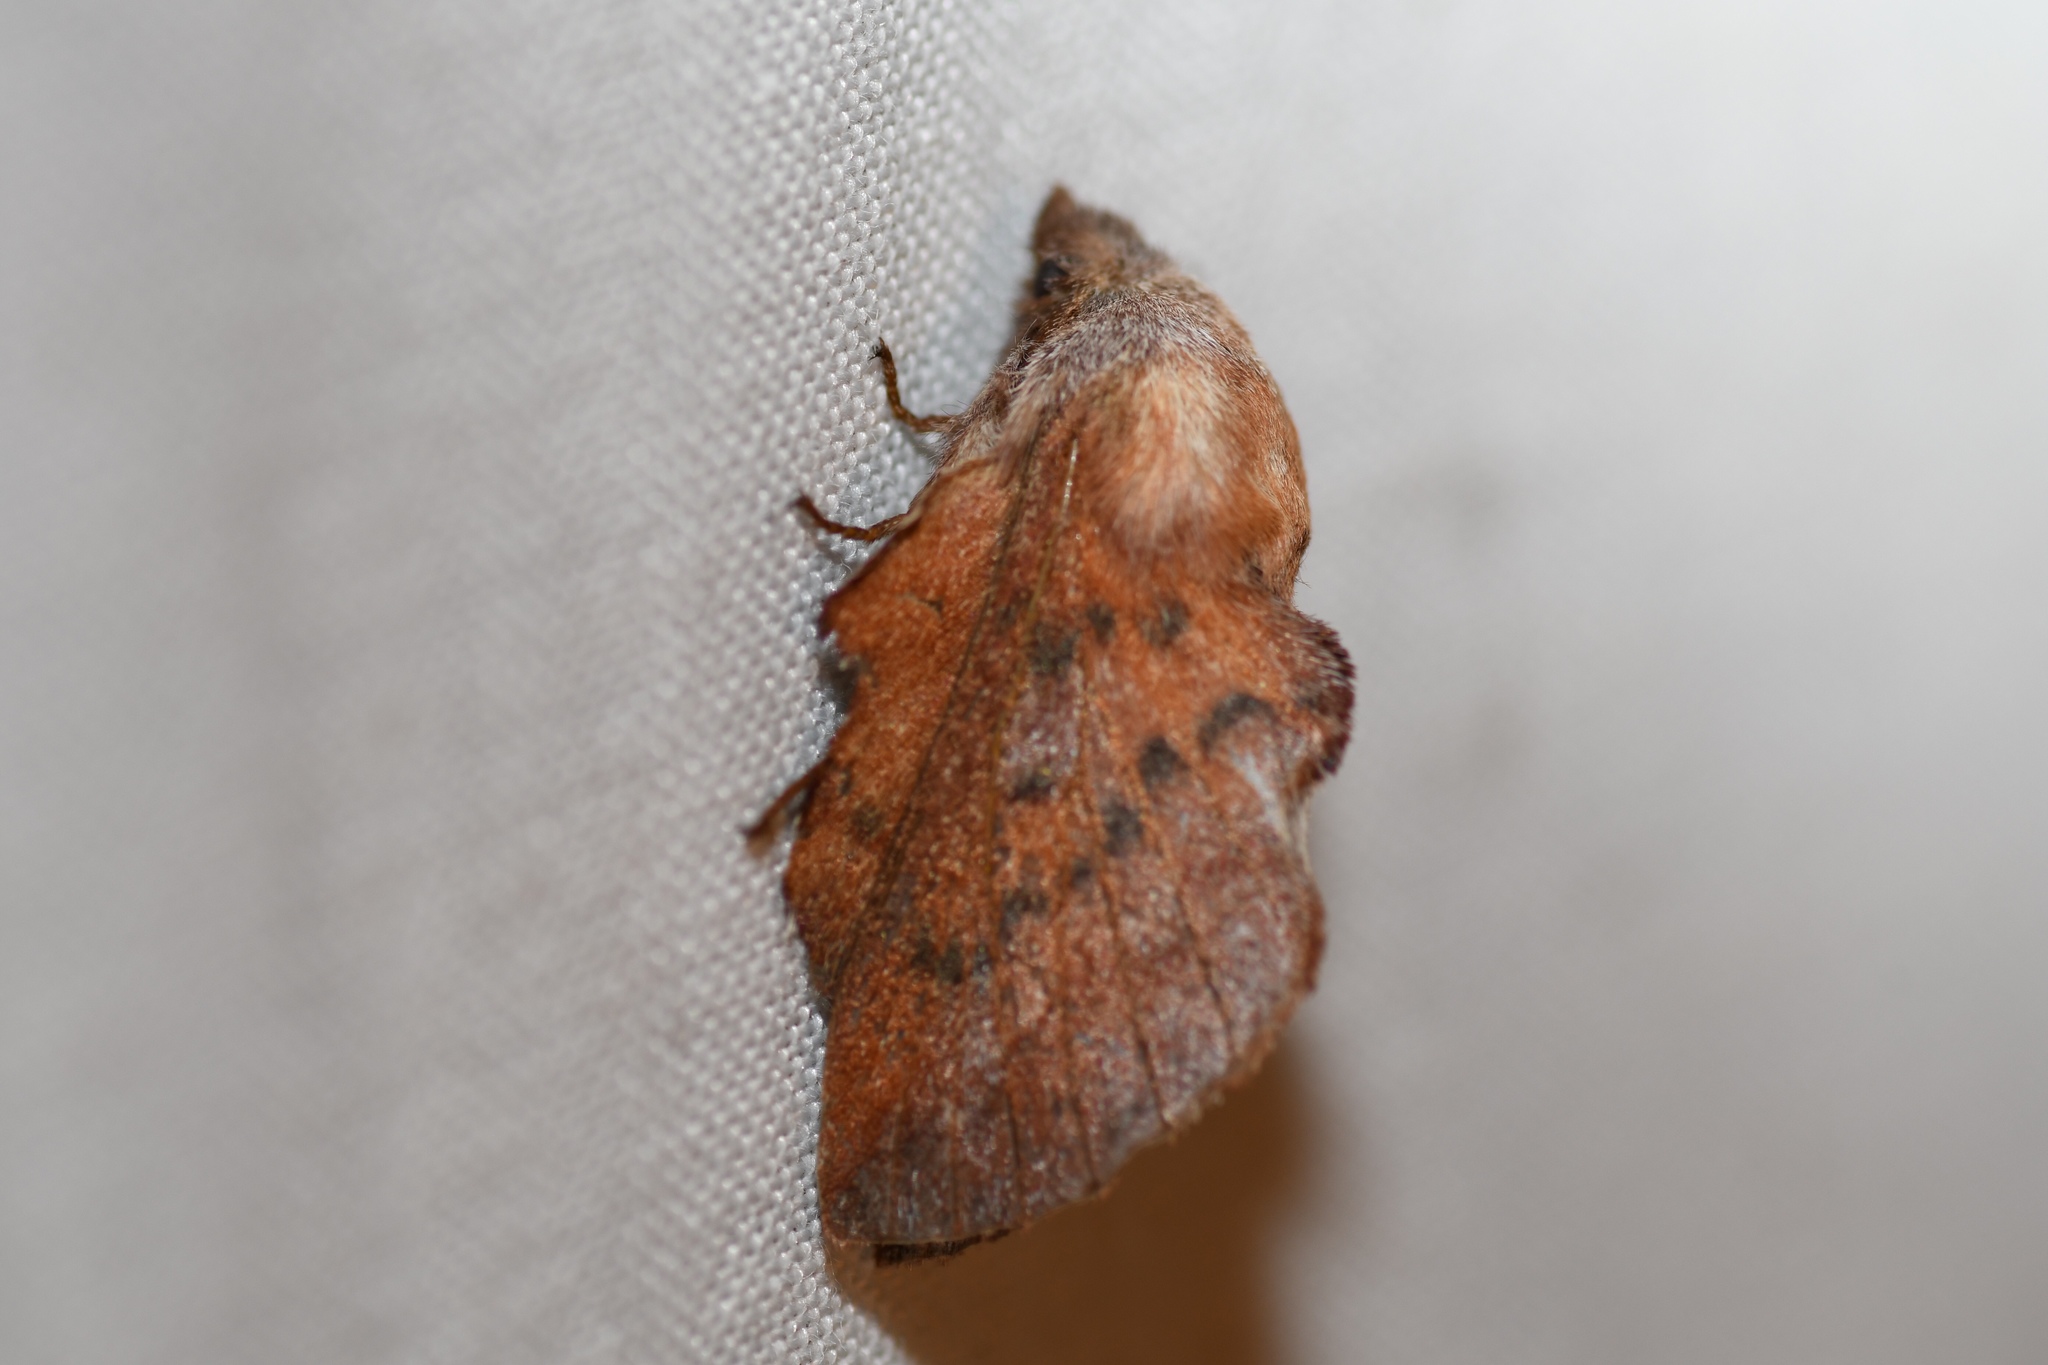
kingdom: Animalia
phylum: Arthropoda
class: Insecta
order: Lepidoptera
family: Lasiocampidae
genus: Phyllodesma
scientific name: Phyllodesma americana
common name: American lappet moth
